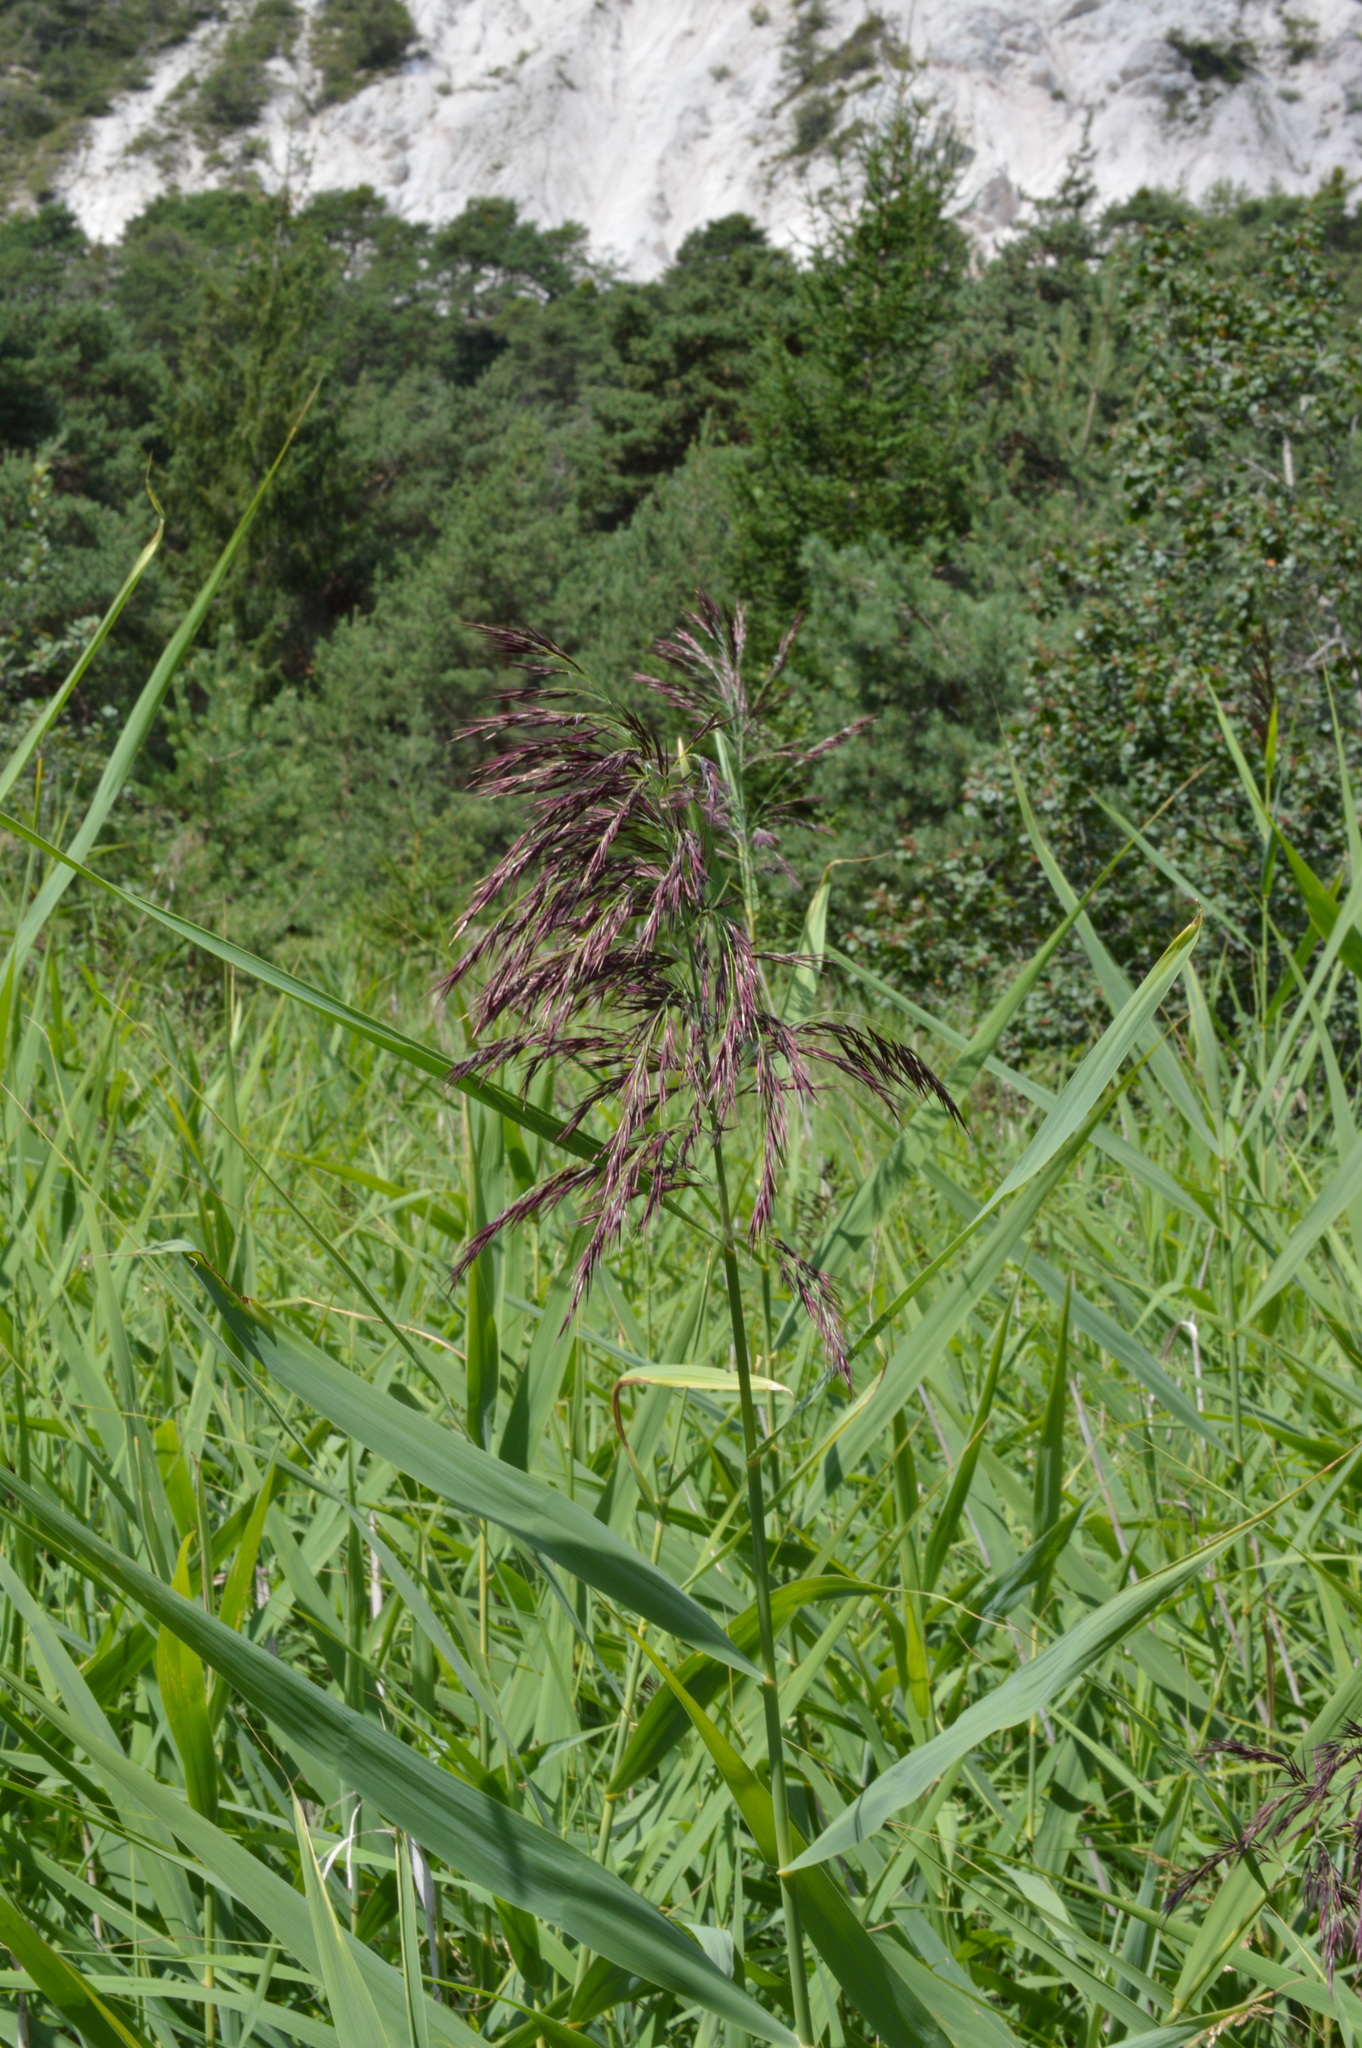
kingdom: Plantae
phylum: Tracheophyta
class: Liliopsida
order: Poales
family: Poaceae
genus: Phragmites
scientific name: Phragmites australis
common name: Common reed
